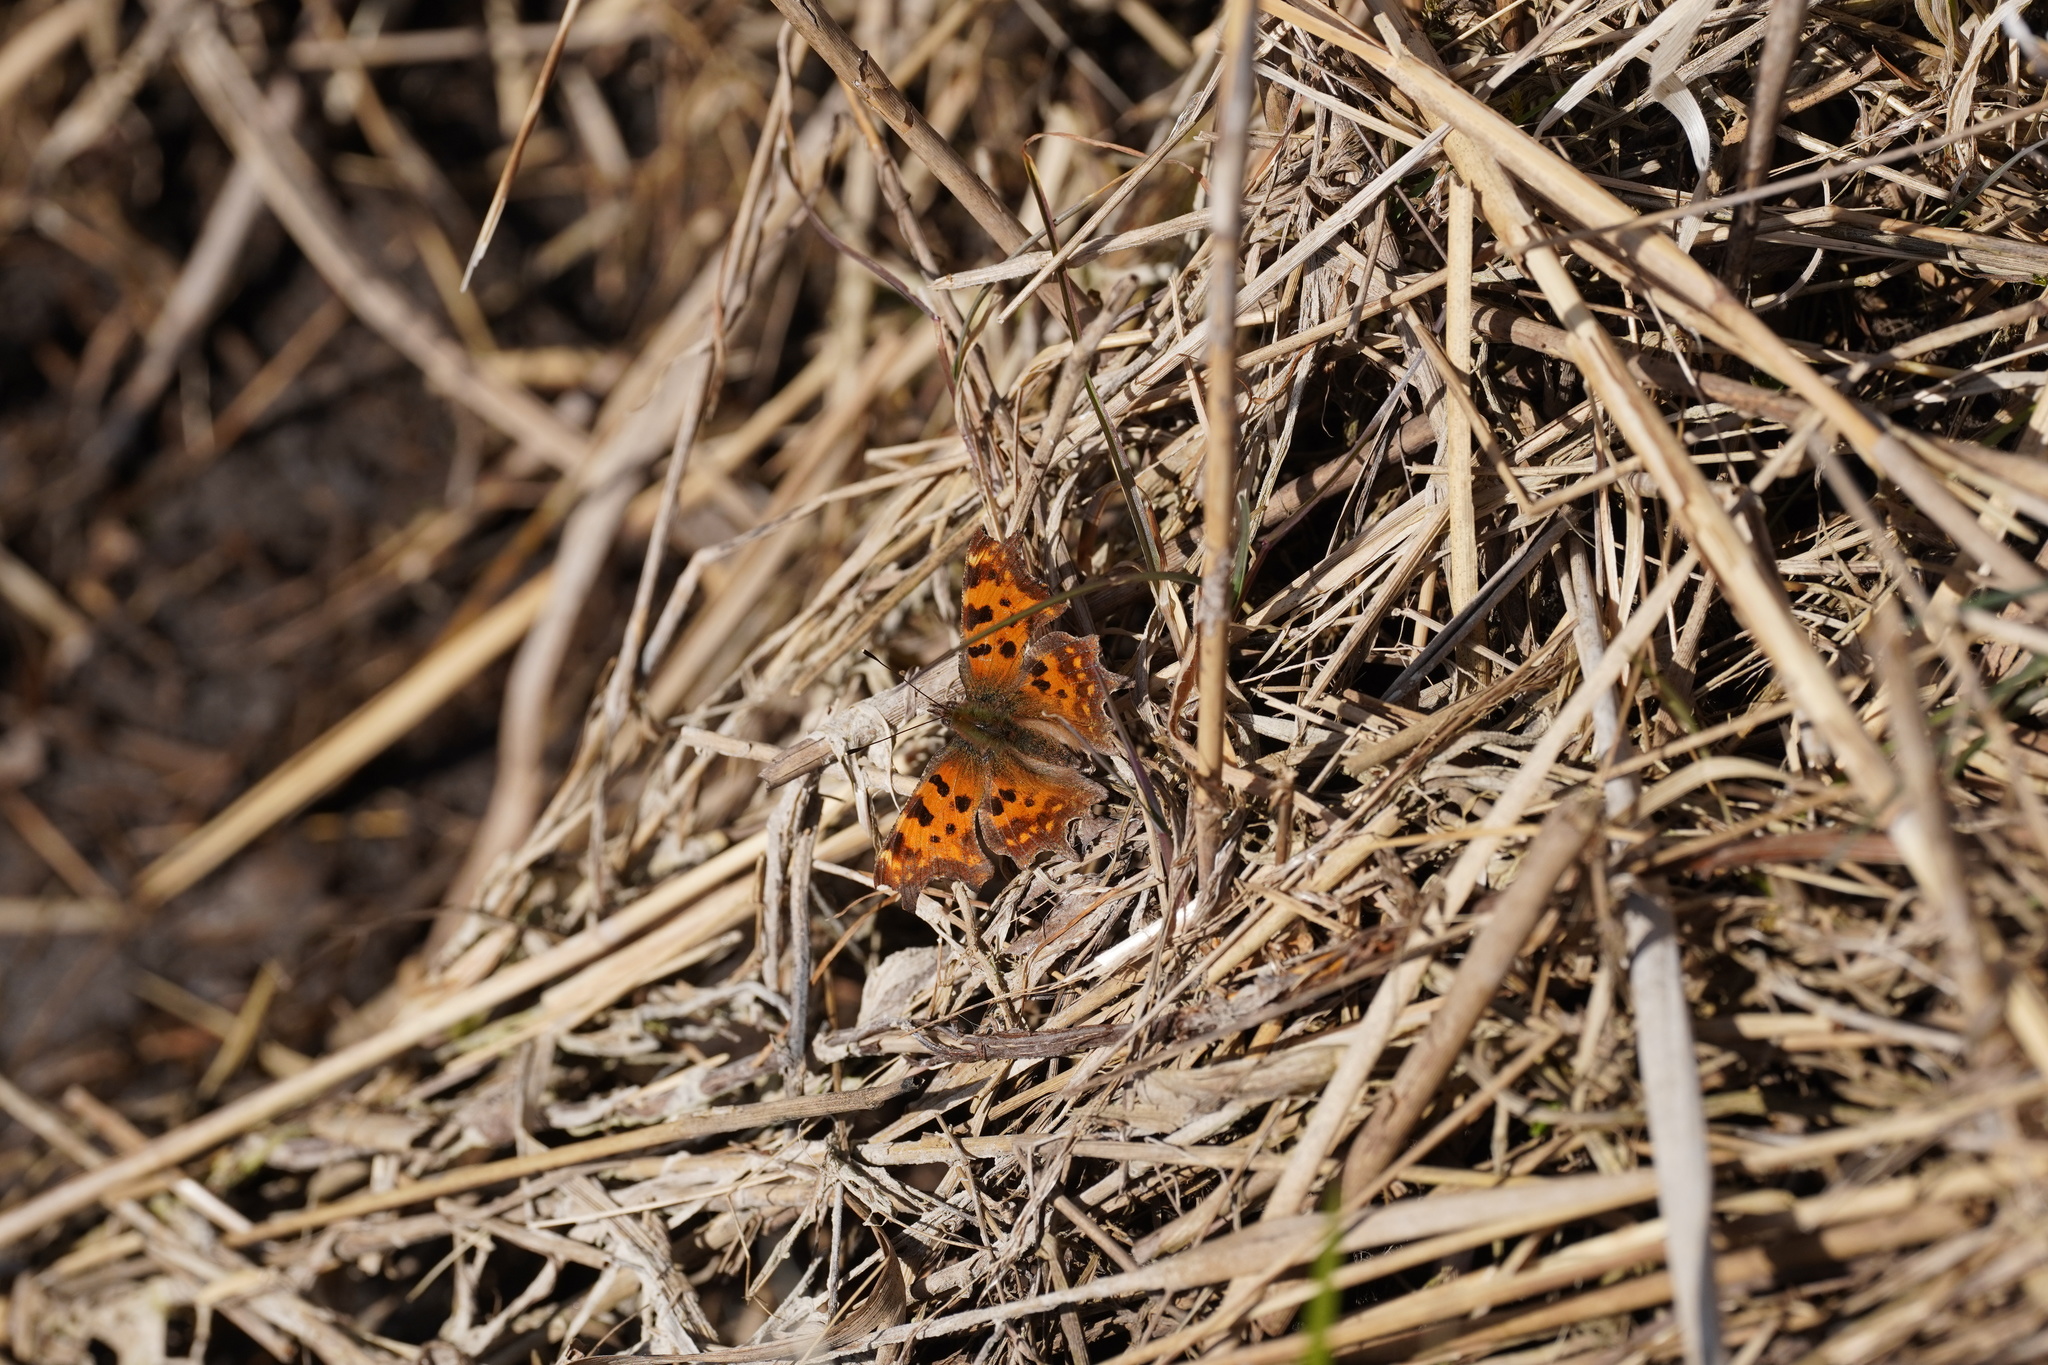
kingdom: Animalia
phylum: Arthropoda
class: Insecta
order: Lepidoptera
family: Nymphalidae
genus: Polygonia
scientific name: Polygonia c-album
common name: Comma
